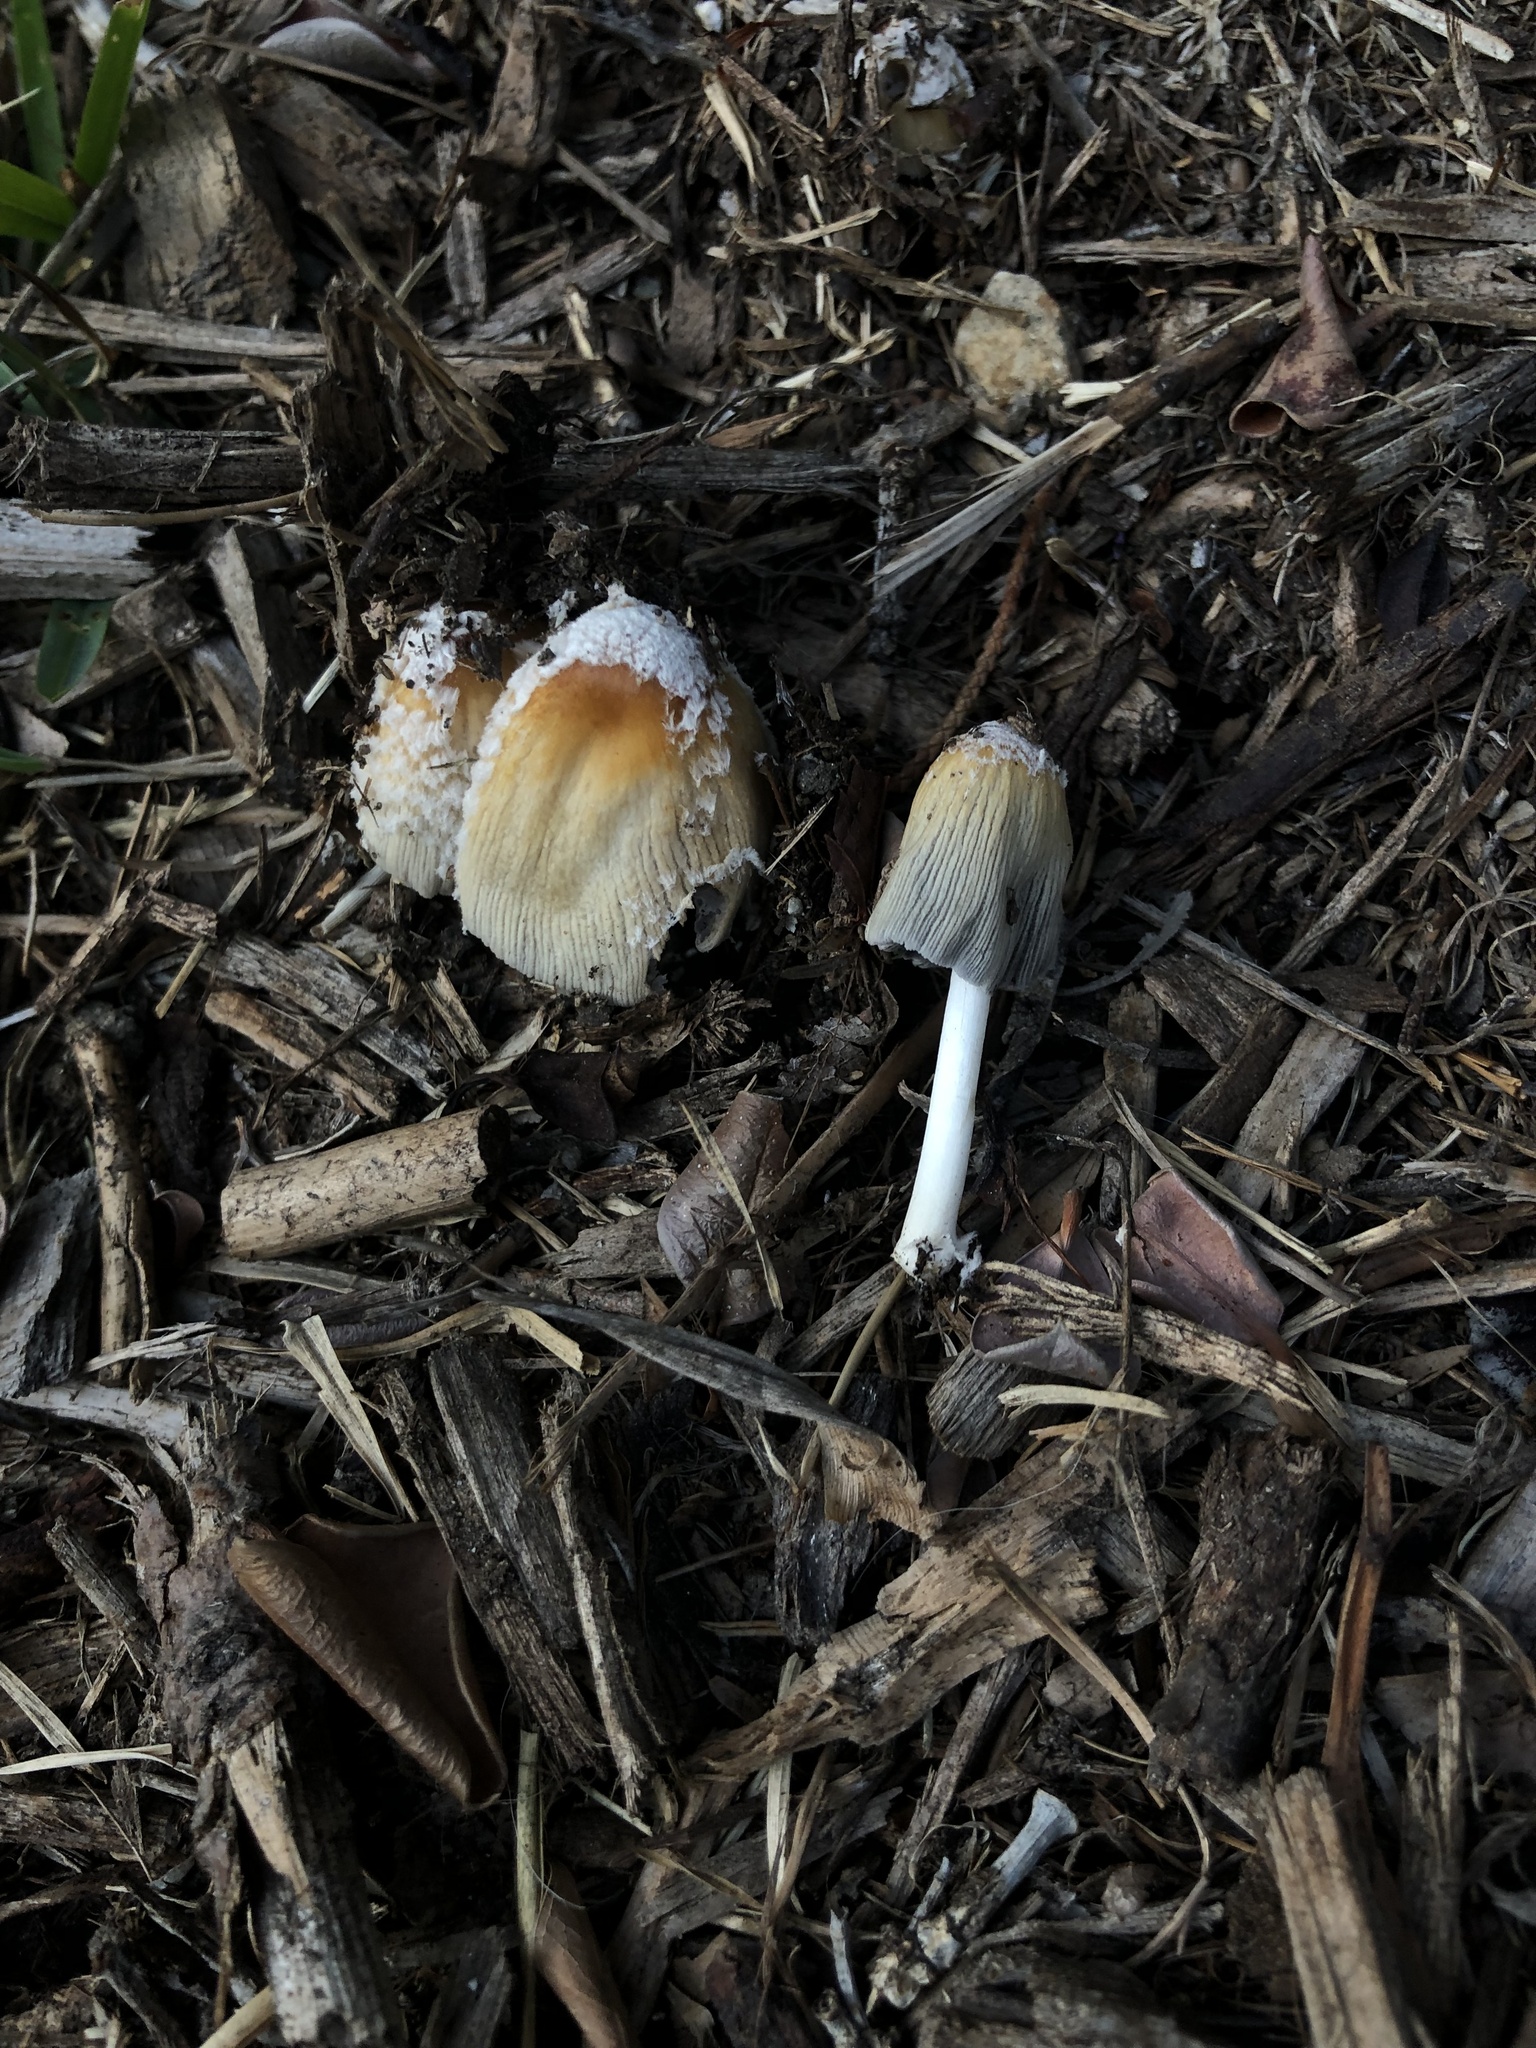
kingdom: Fungi
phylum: Basidiomycota
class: Agaricomycetes
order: Agaricales
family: Psathyrellaceae
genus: Coprinellus
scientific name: Coprinellus flocculosus
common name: Flocculose inkcap
